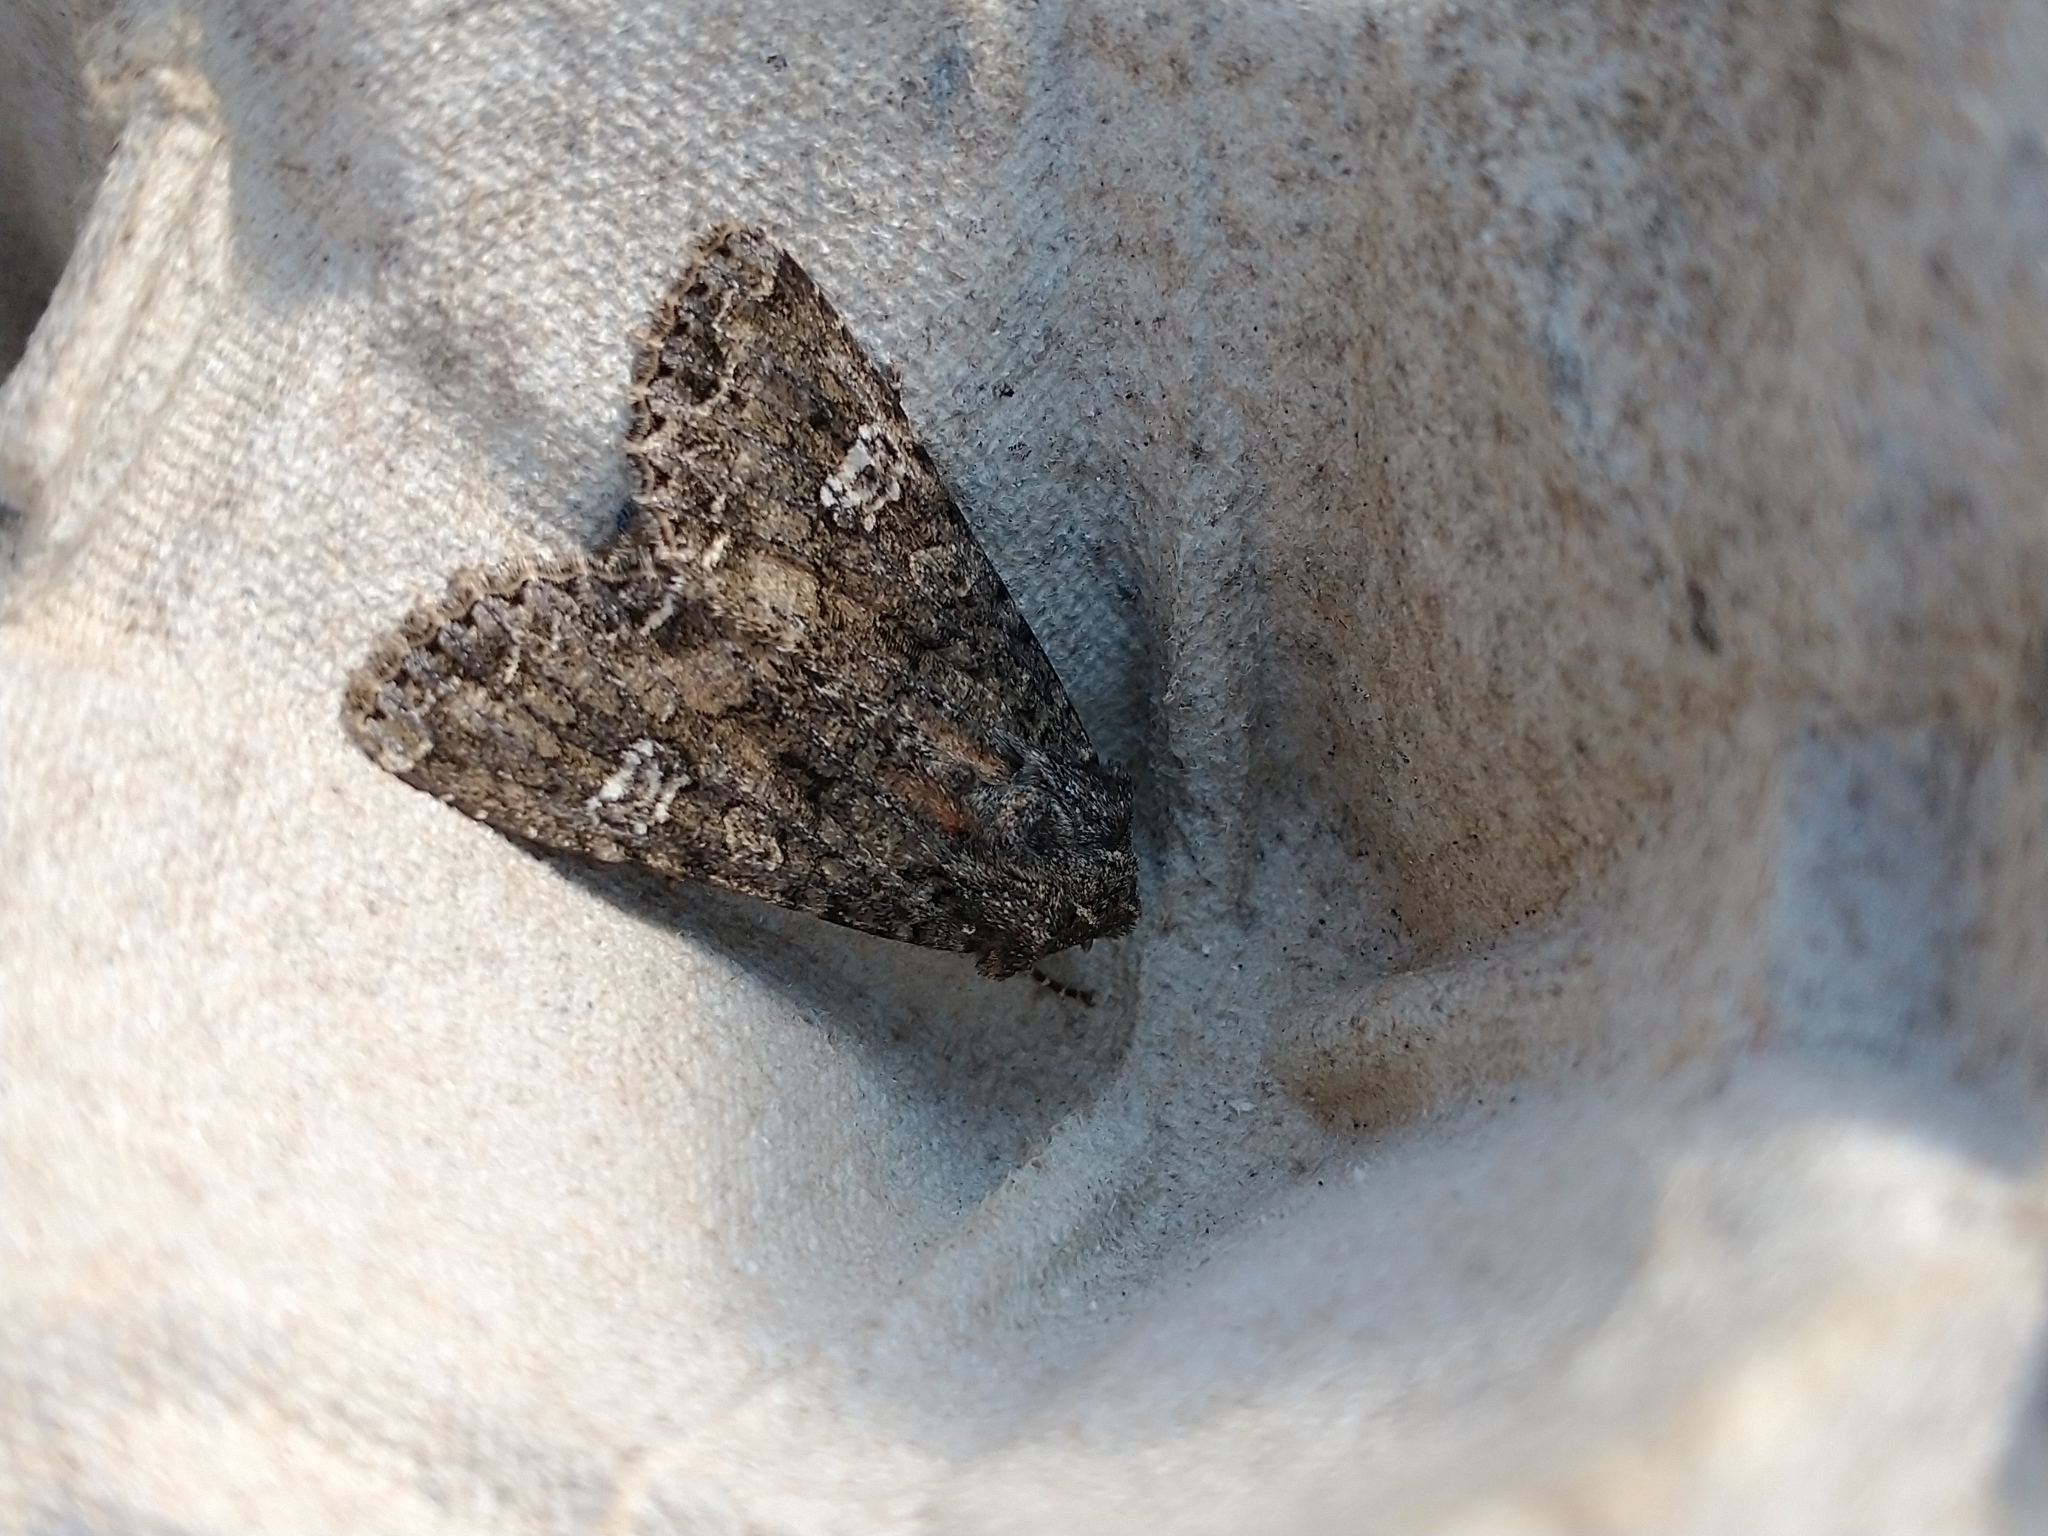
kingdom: Animalia
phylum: Arthropoda
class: Insecta
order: Lepidoptera
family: Noctuidae
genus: Mamestra
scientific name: Mamestra brassicae
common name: Cabbage moth
